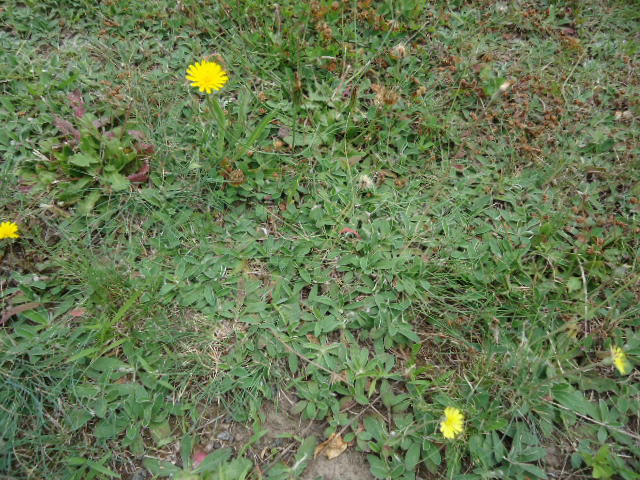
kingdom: Plantae
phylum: Tracheophyta
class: Magnoliopsida
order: Asterales
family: Asteraceae
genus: Pilosella
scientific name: Pilosella officinarum
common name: Mouse-ear hawkweed
